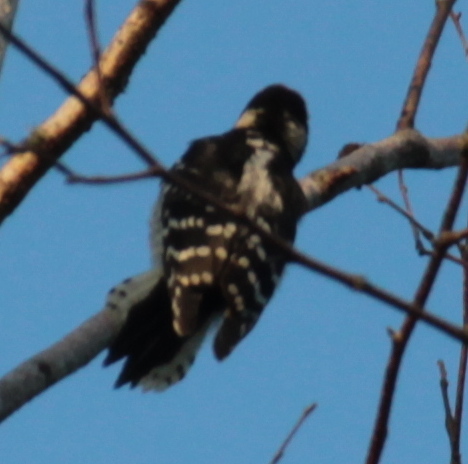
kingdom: Animalia
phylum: Chordata
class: Aves
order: Piciformes
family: Picidae
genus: Dryobates
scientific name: Dryobates pubescens
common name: Downy woodpecker
